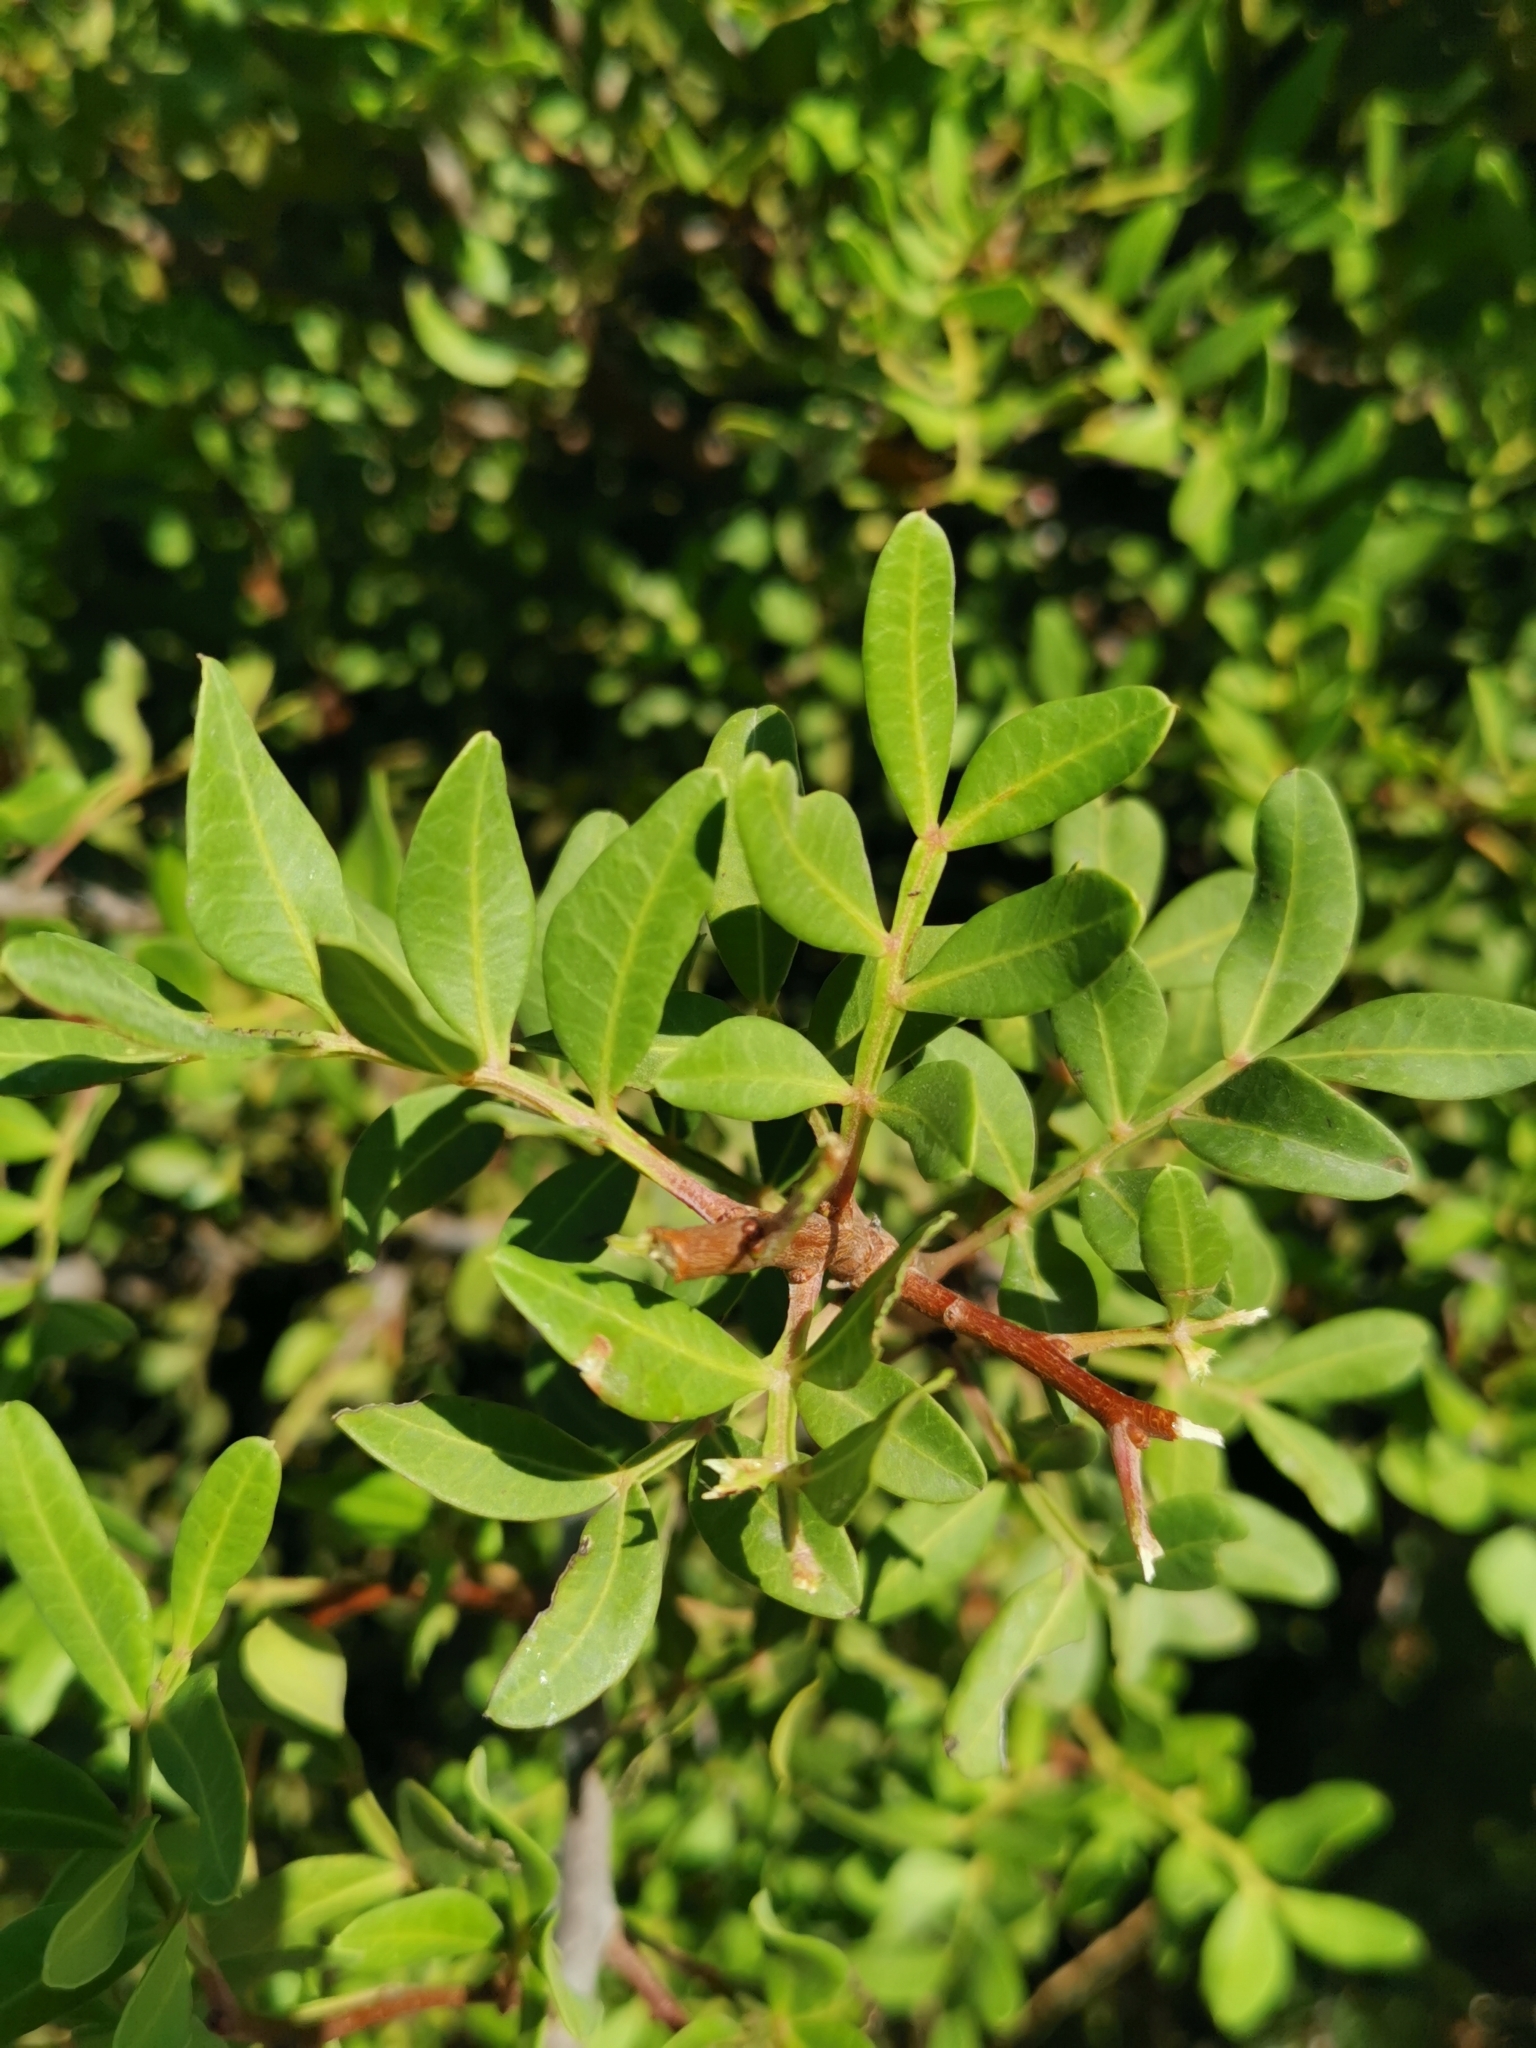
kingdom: Plantae
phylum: Tracheophyta
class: Magnoliopsida
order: Sapindales
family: Anacardiaceae
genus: Pistacia
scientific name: Pistacia lentiscus
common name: Lentisk
